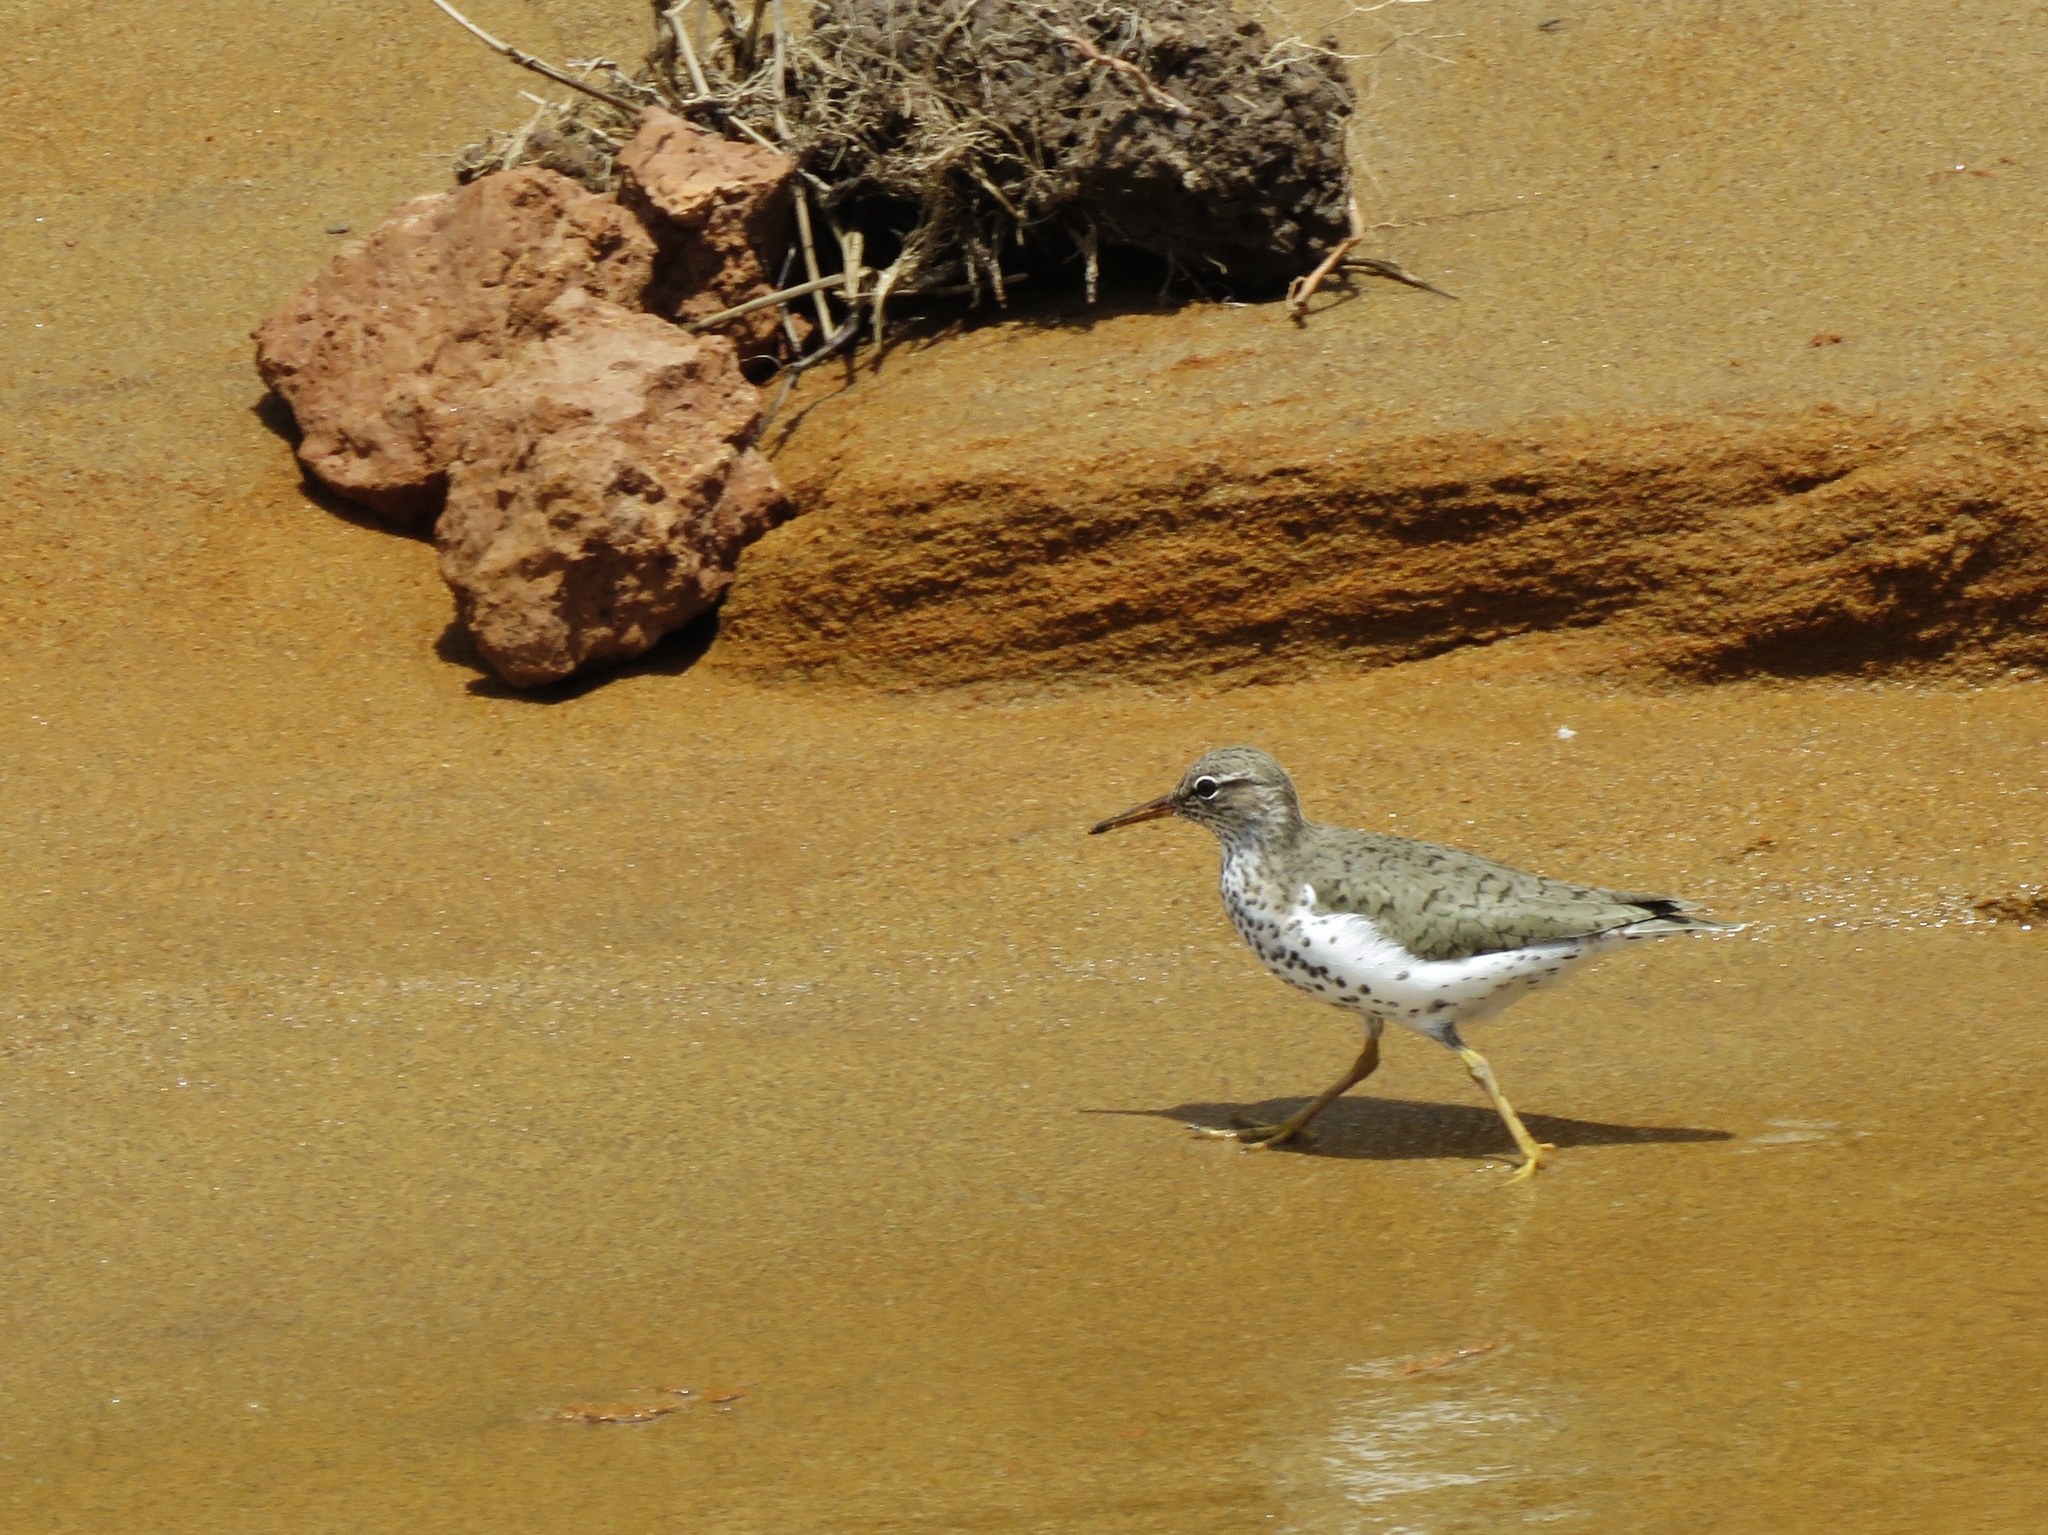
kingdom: Animalia
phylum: Chordata
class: Aves
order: Charadriiformes
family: Scolopacidae
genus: Actitis
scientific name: Actitis macularius
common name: Spotted sandpiper
